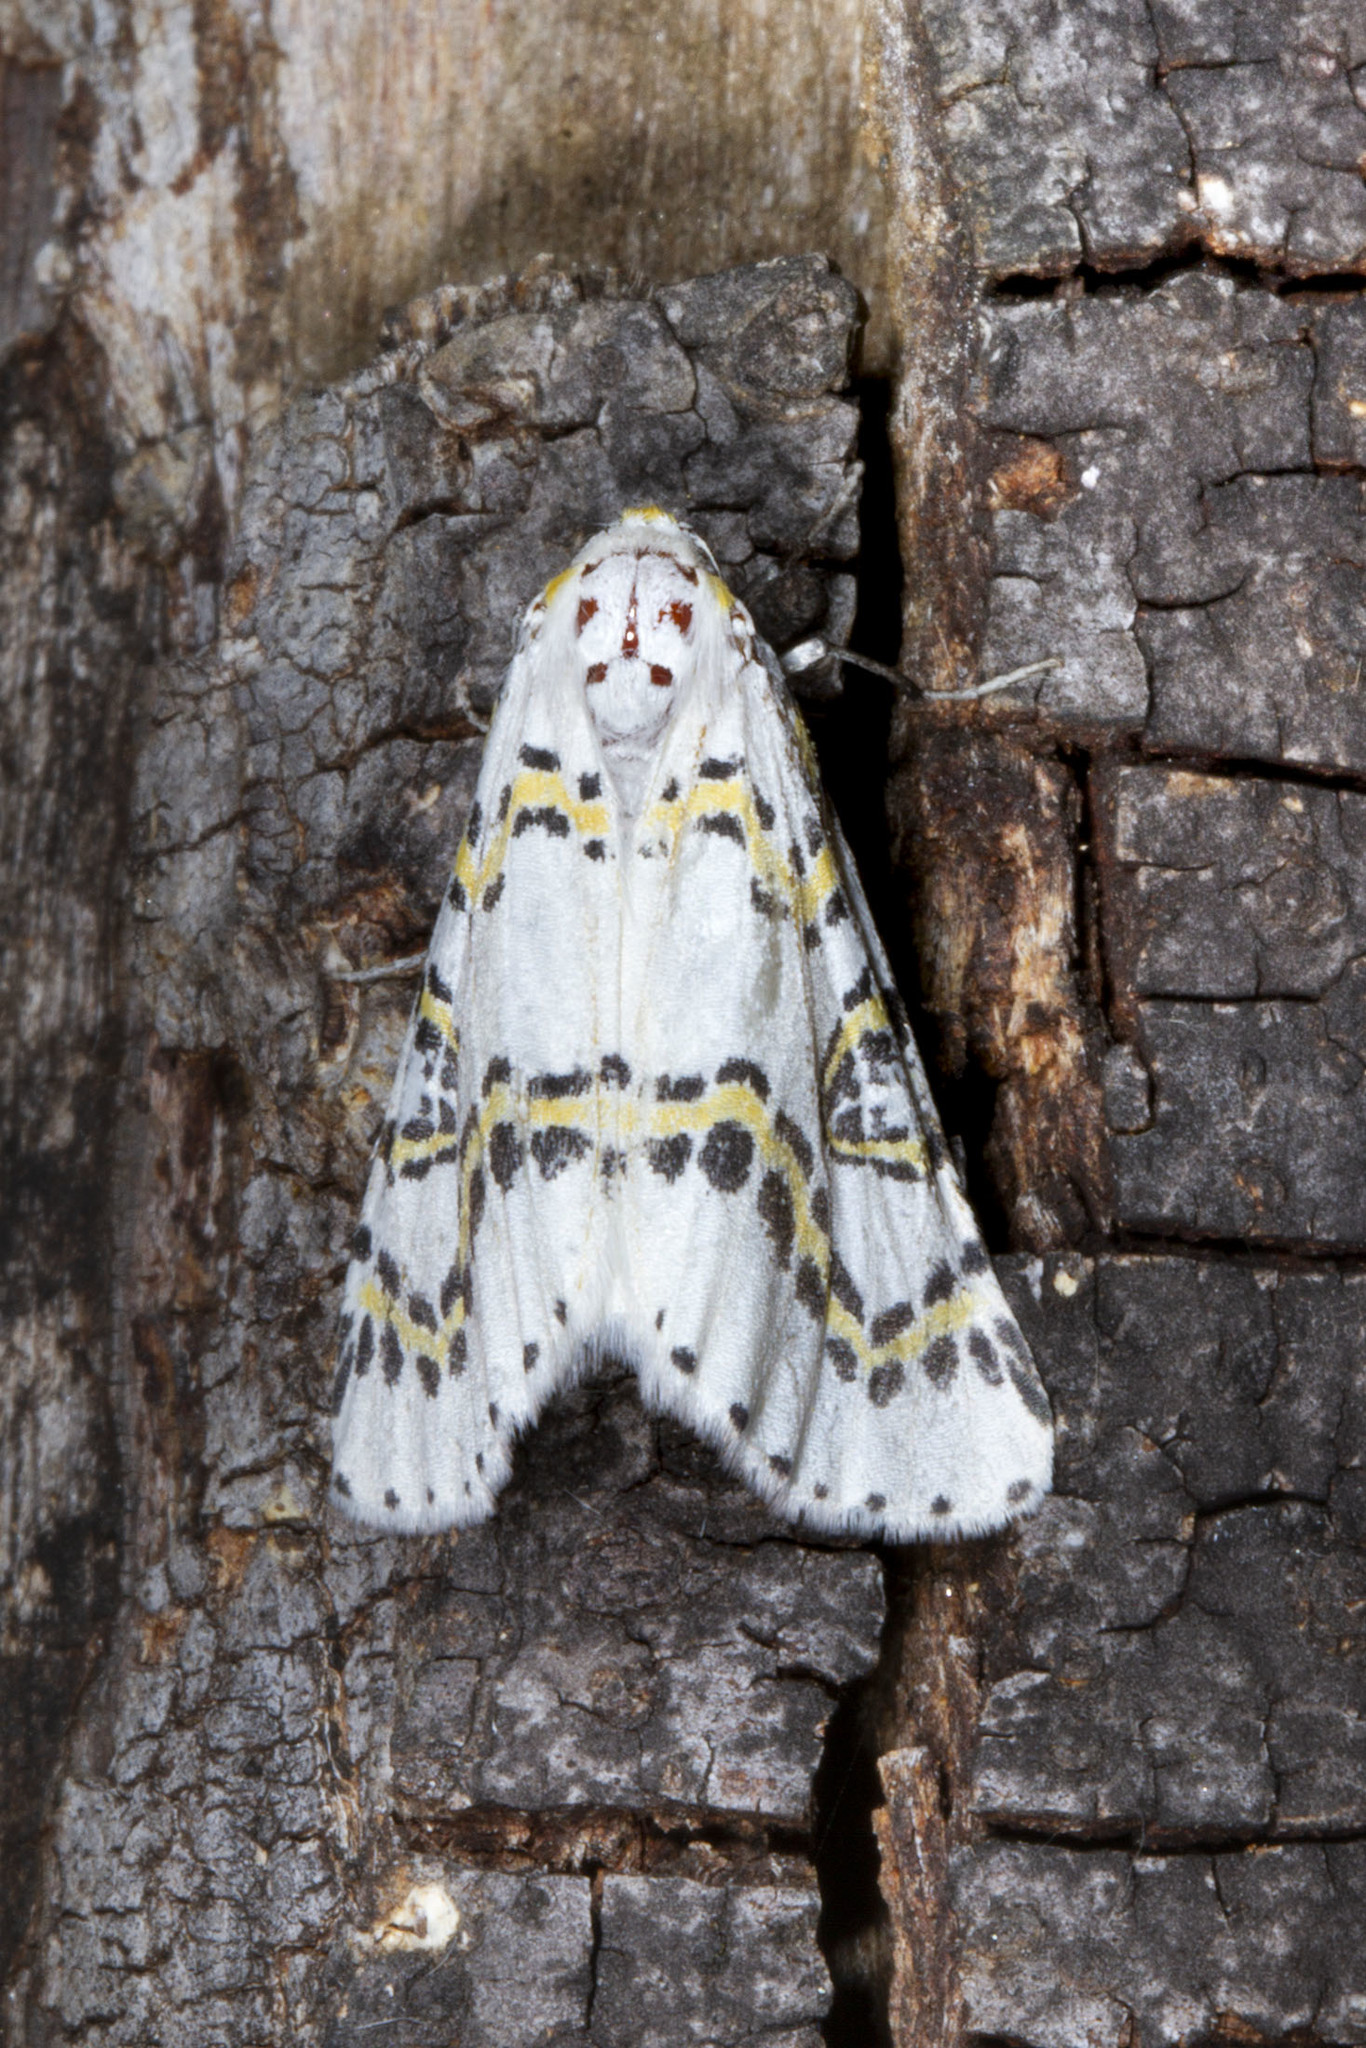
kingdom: Animalia
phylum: Arthropoda
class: Insecta
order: Lepidoptera
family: Geometridae
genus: Philtraea
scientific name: Philtraea mexicana
